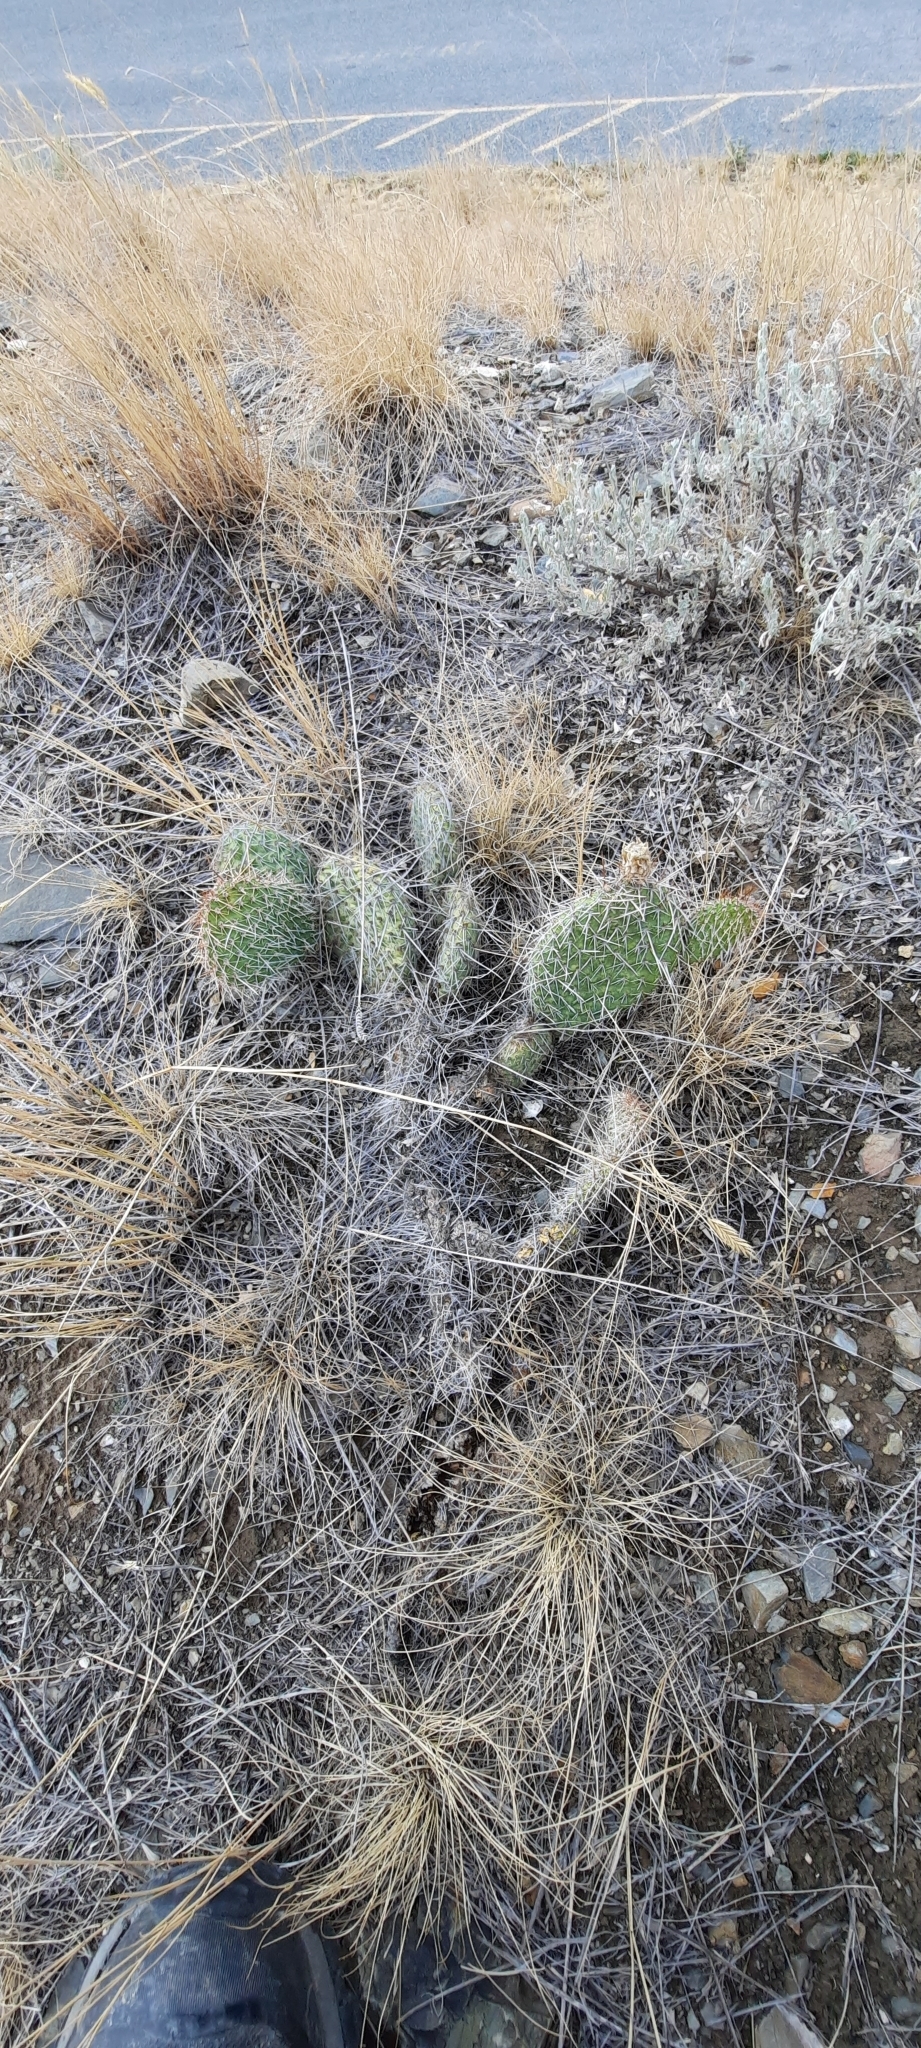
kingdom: Plantae
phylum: Tracheophyta
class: Magnoliopsida
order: Caryophyllales
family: Cactaceae
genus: Opuntia
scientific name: Opuntia polyacantha
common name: Plains prickly-pear
